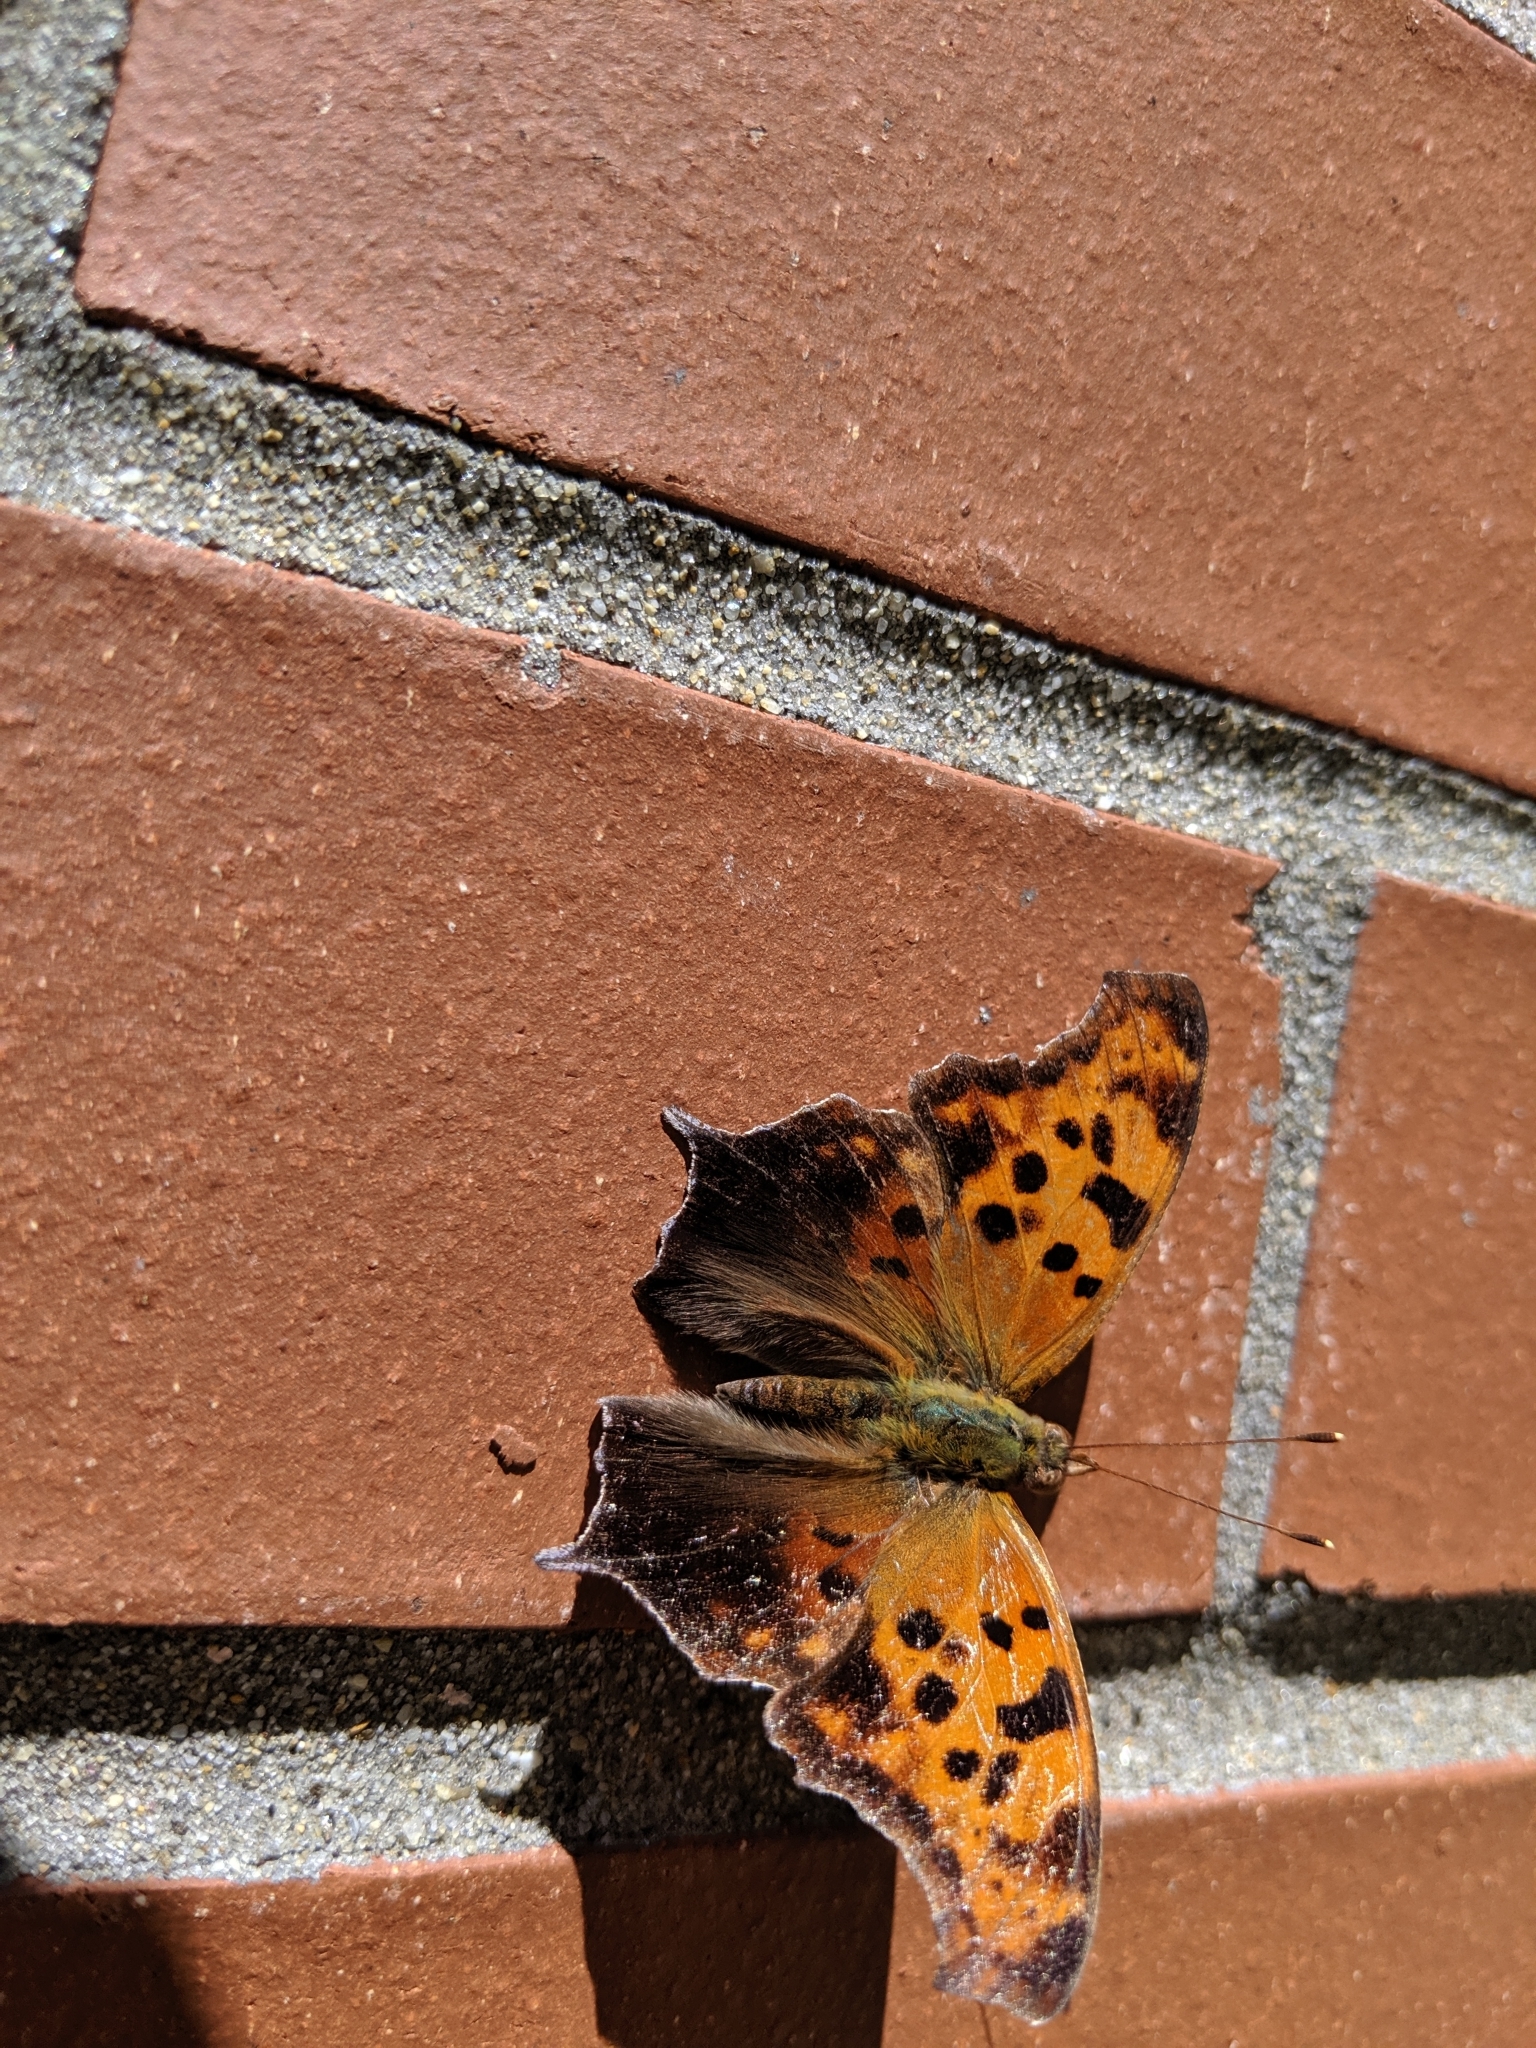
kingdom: Animalia
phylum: Arthropoda
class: Insecta
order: Lepidoptera
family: Nymphalidae
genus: Polygonia
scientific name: Polygonia interrogationis
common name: Question mark
